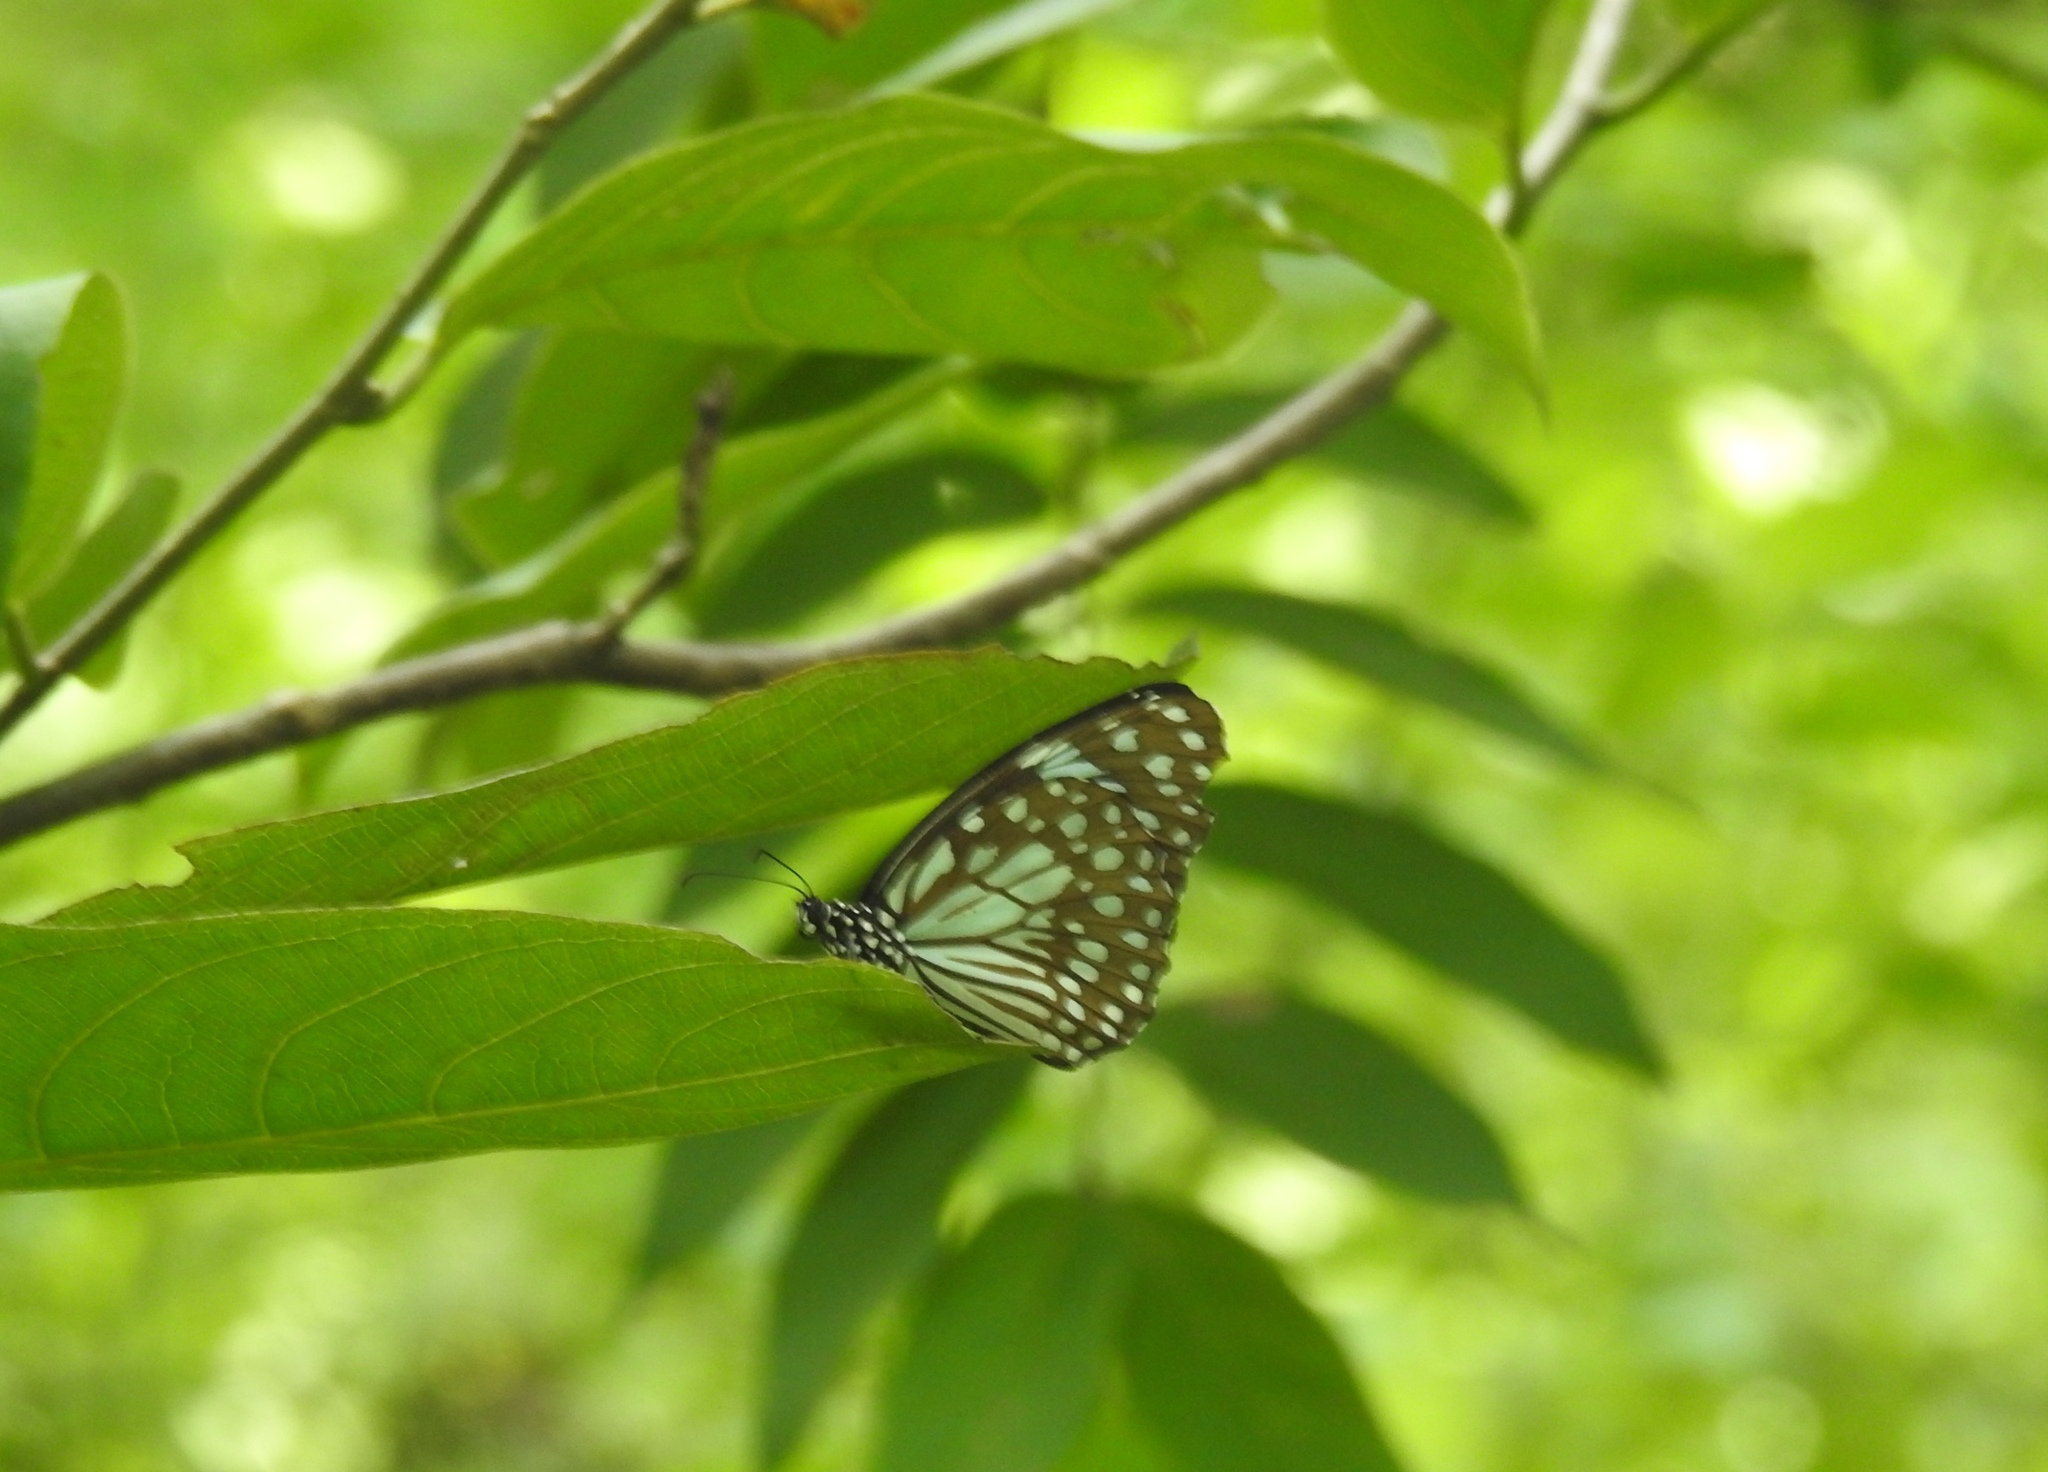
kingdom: Animalia
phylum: Arthropoda
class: Insecta
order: Lepidoptera
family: Nymphalidae
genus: Tirumala
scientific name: Tirumala limniace
